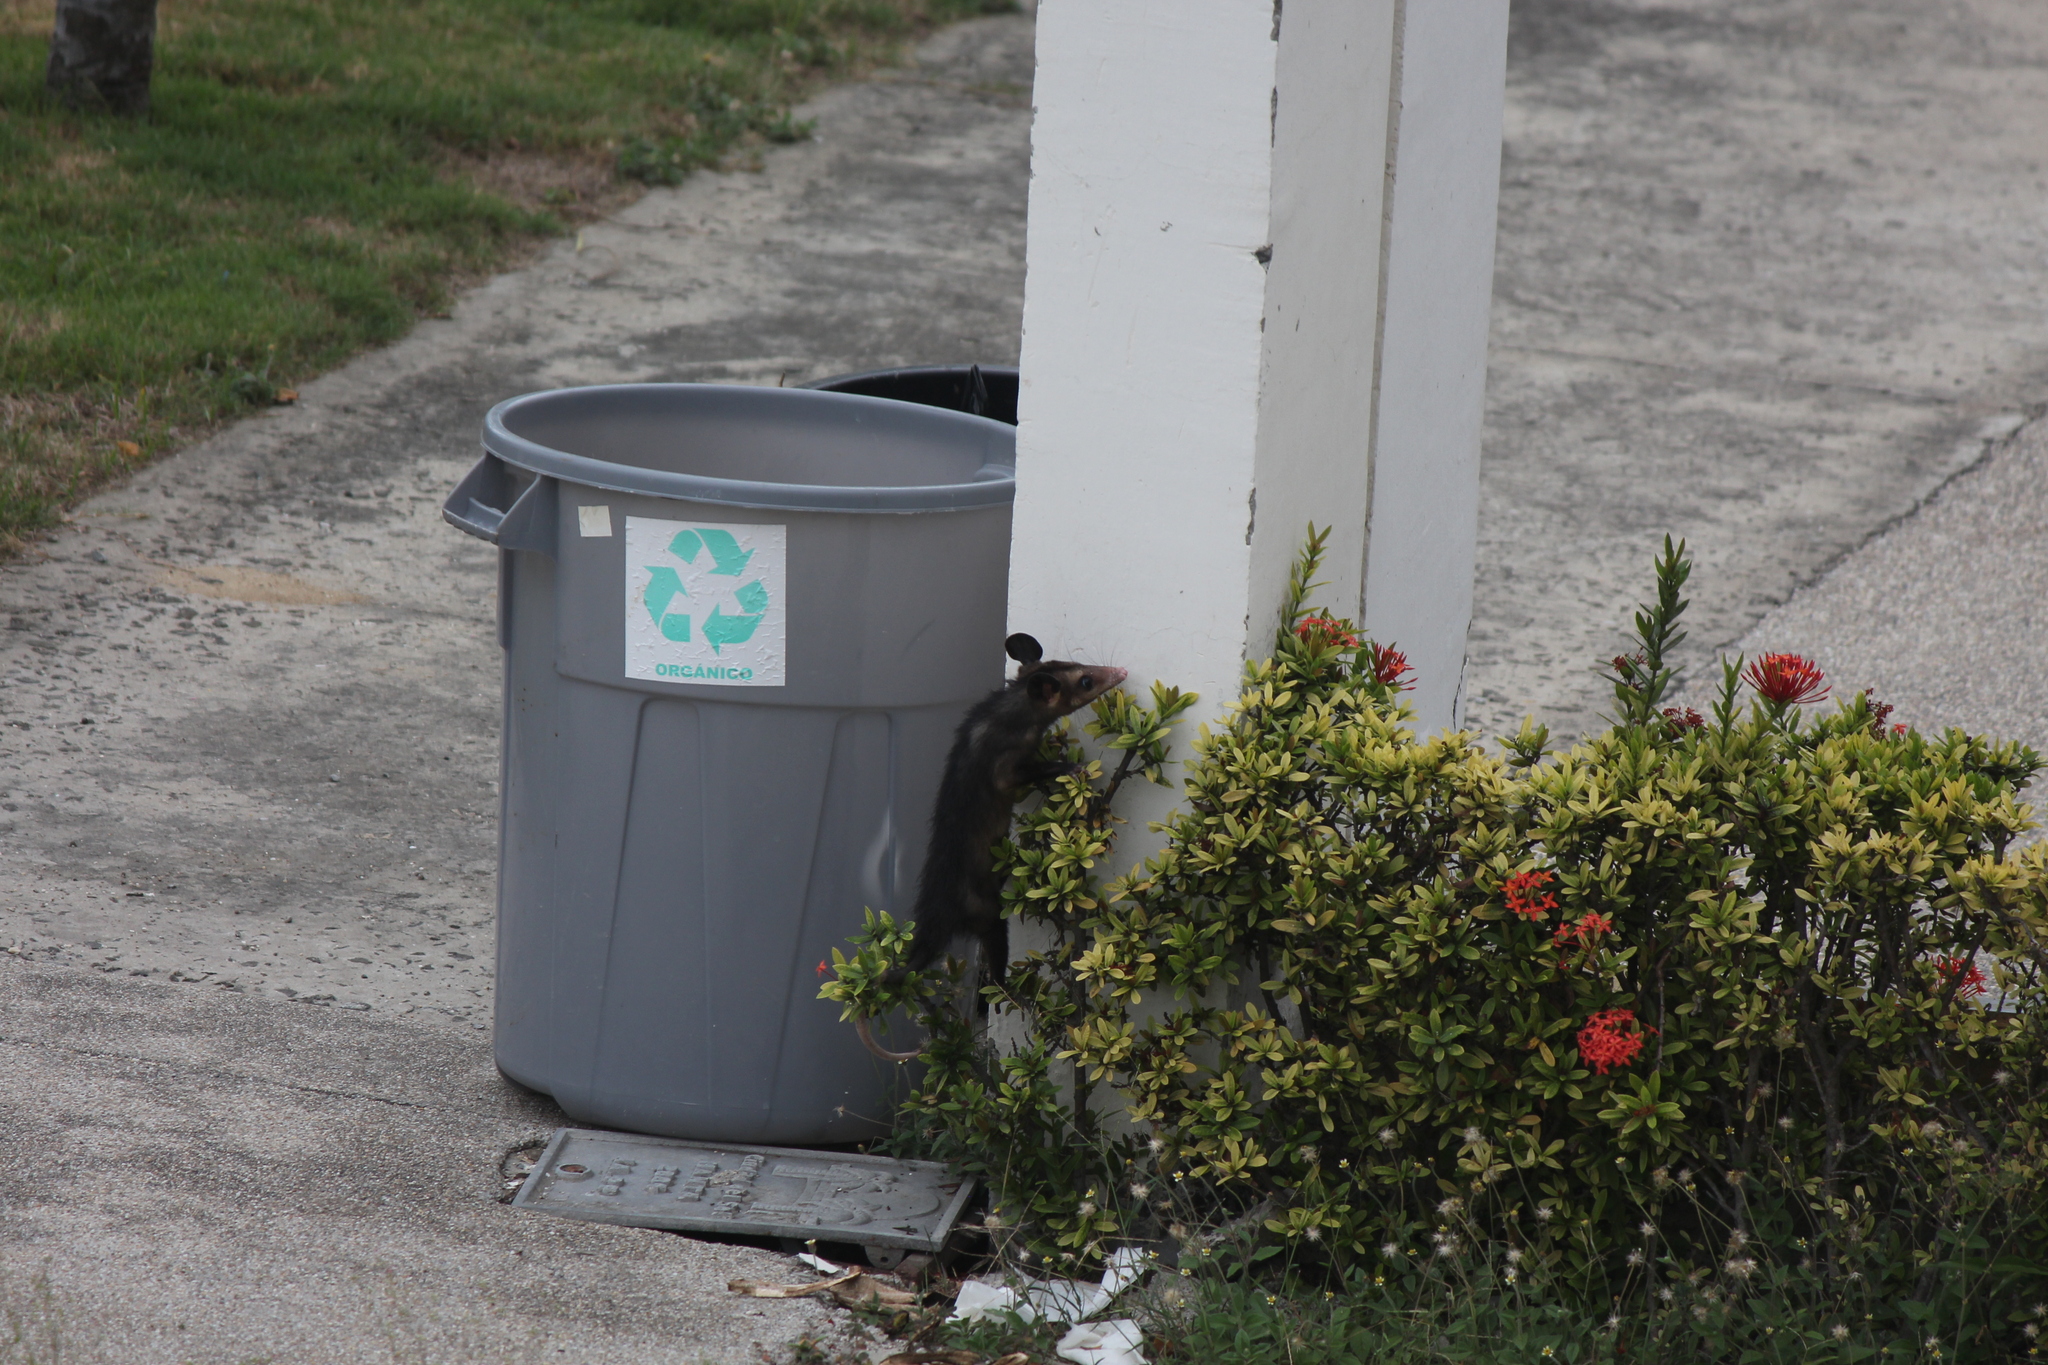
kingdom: Animalia
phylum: Chordata
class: Mammalia
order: Didelphimorphia
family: Didelphidae
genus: Didelphis
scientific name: Didelphis marsupialis
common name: Common opossum
